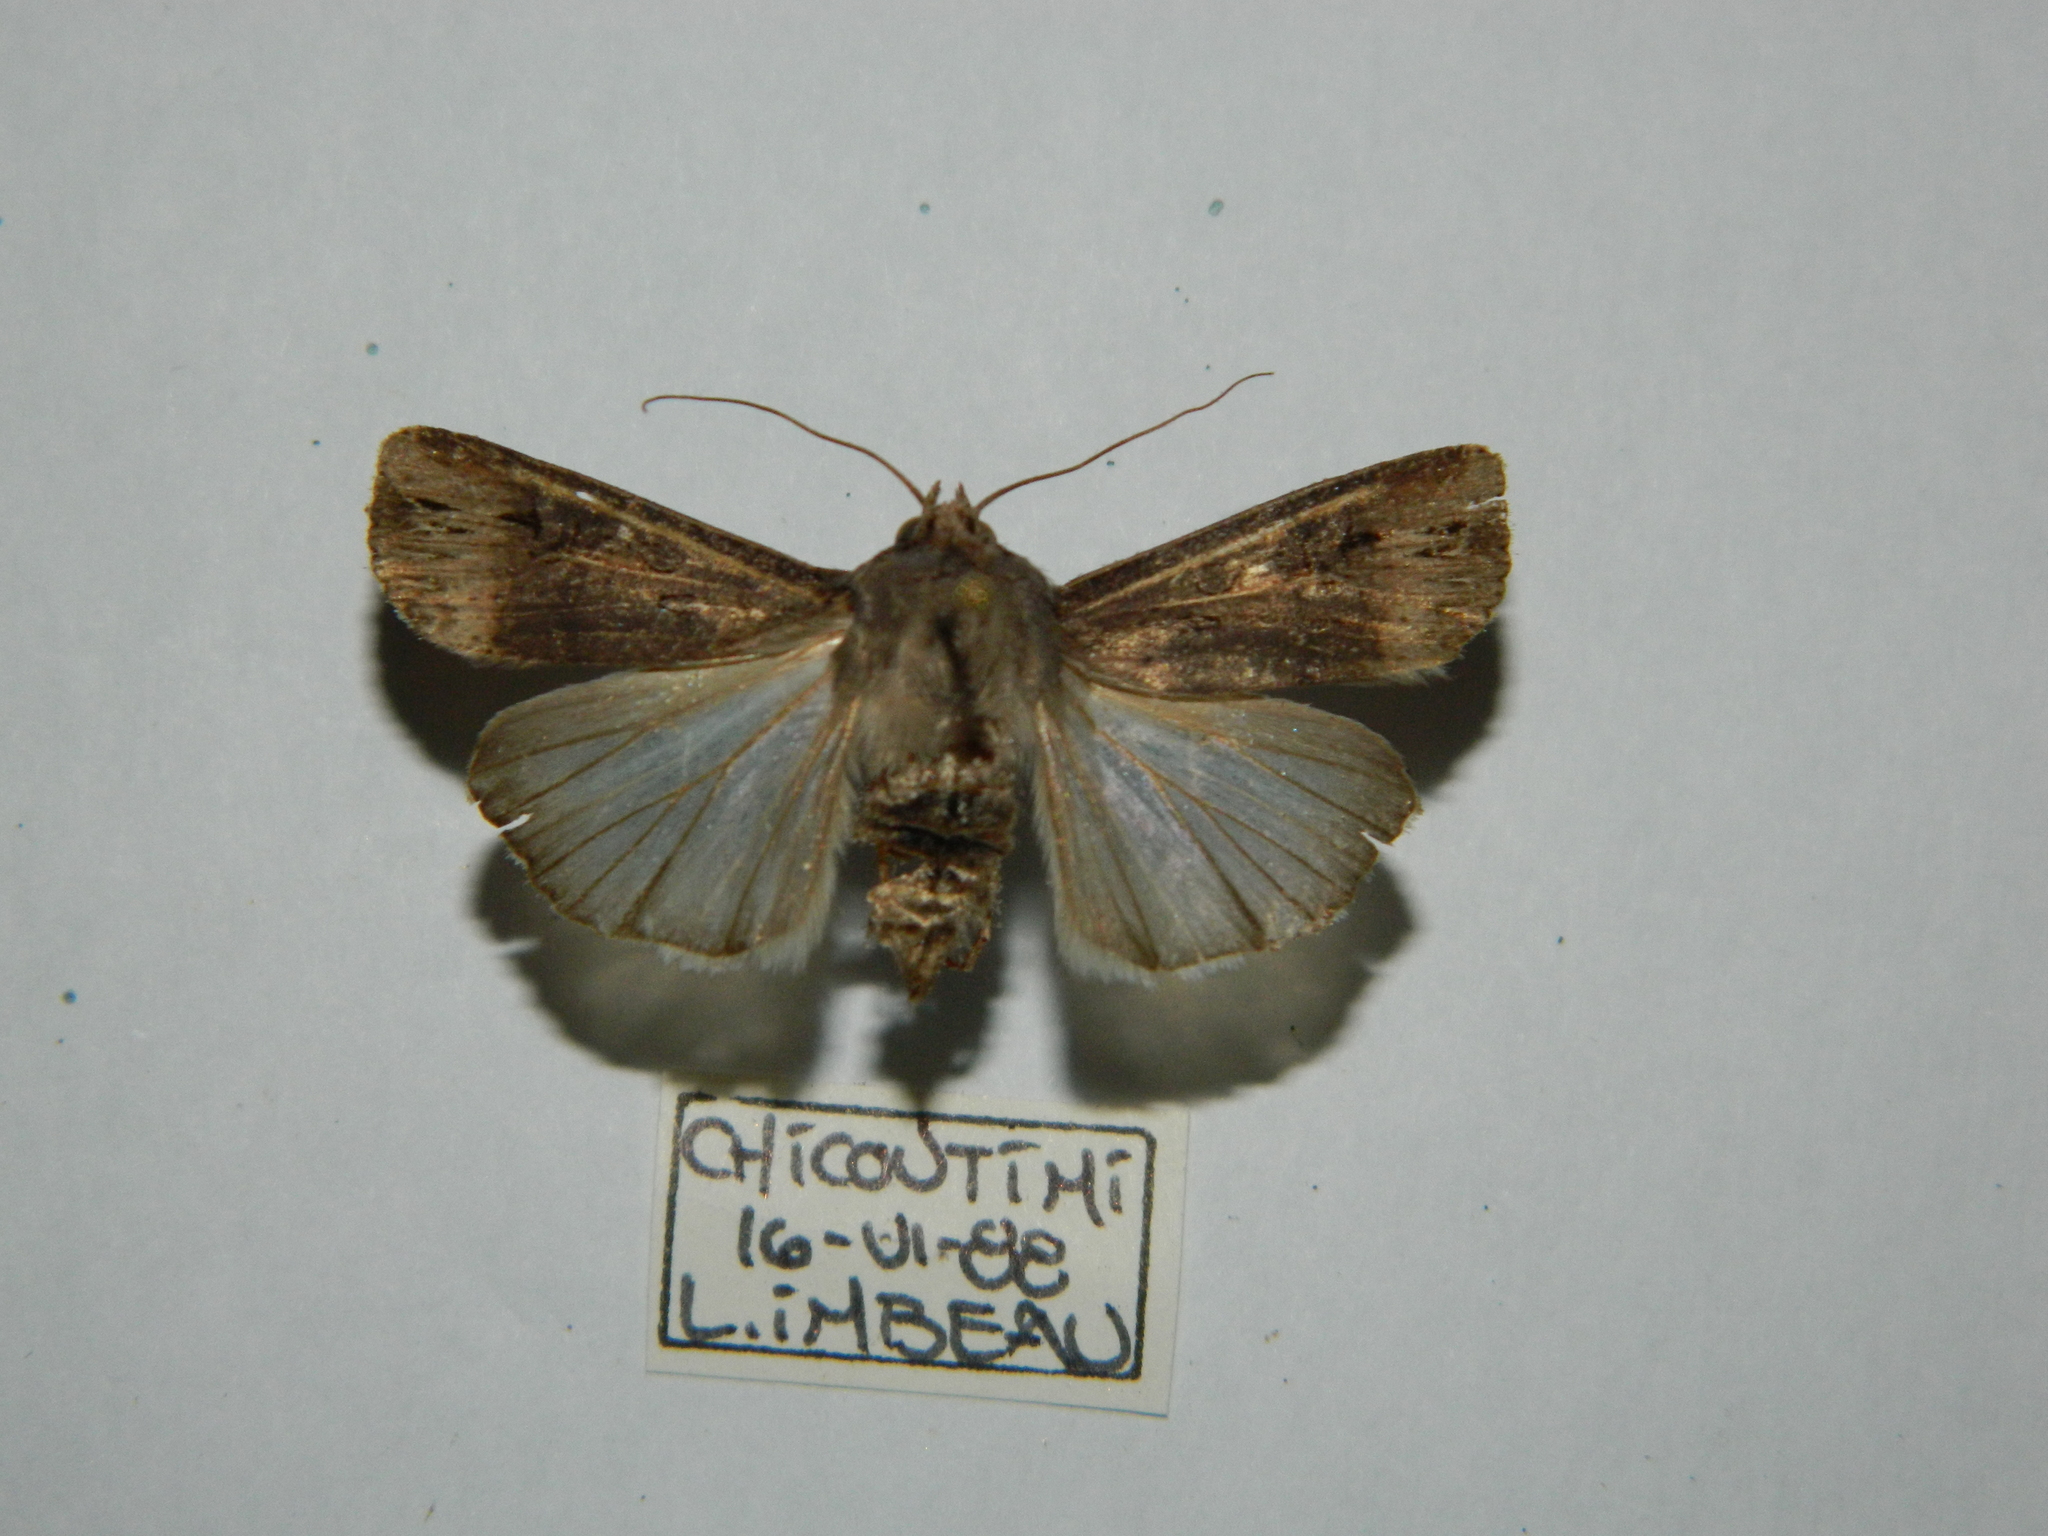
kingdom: Animalia
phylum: Arthropoda
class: Insecta
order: Lepidoptera
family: Noctuidae
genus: Agrotis
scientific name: Agrotis ipsilon
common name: Dark sword-grass
